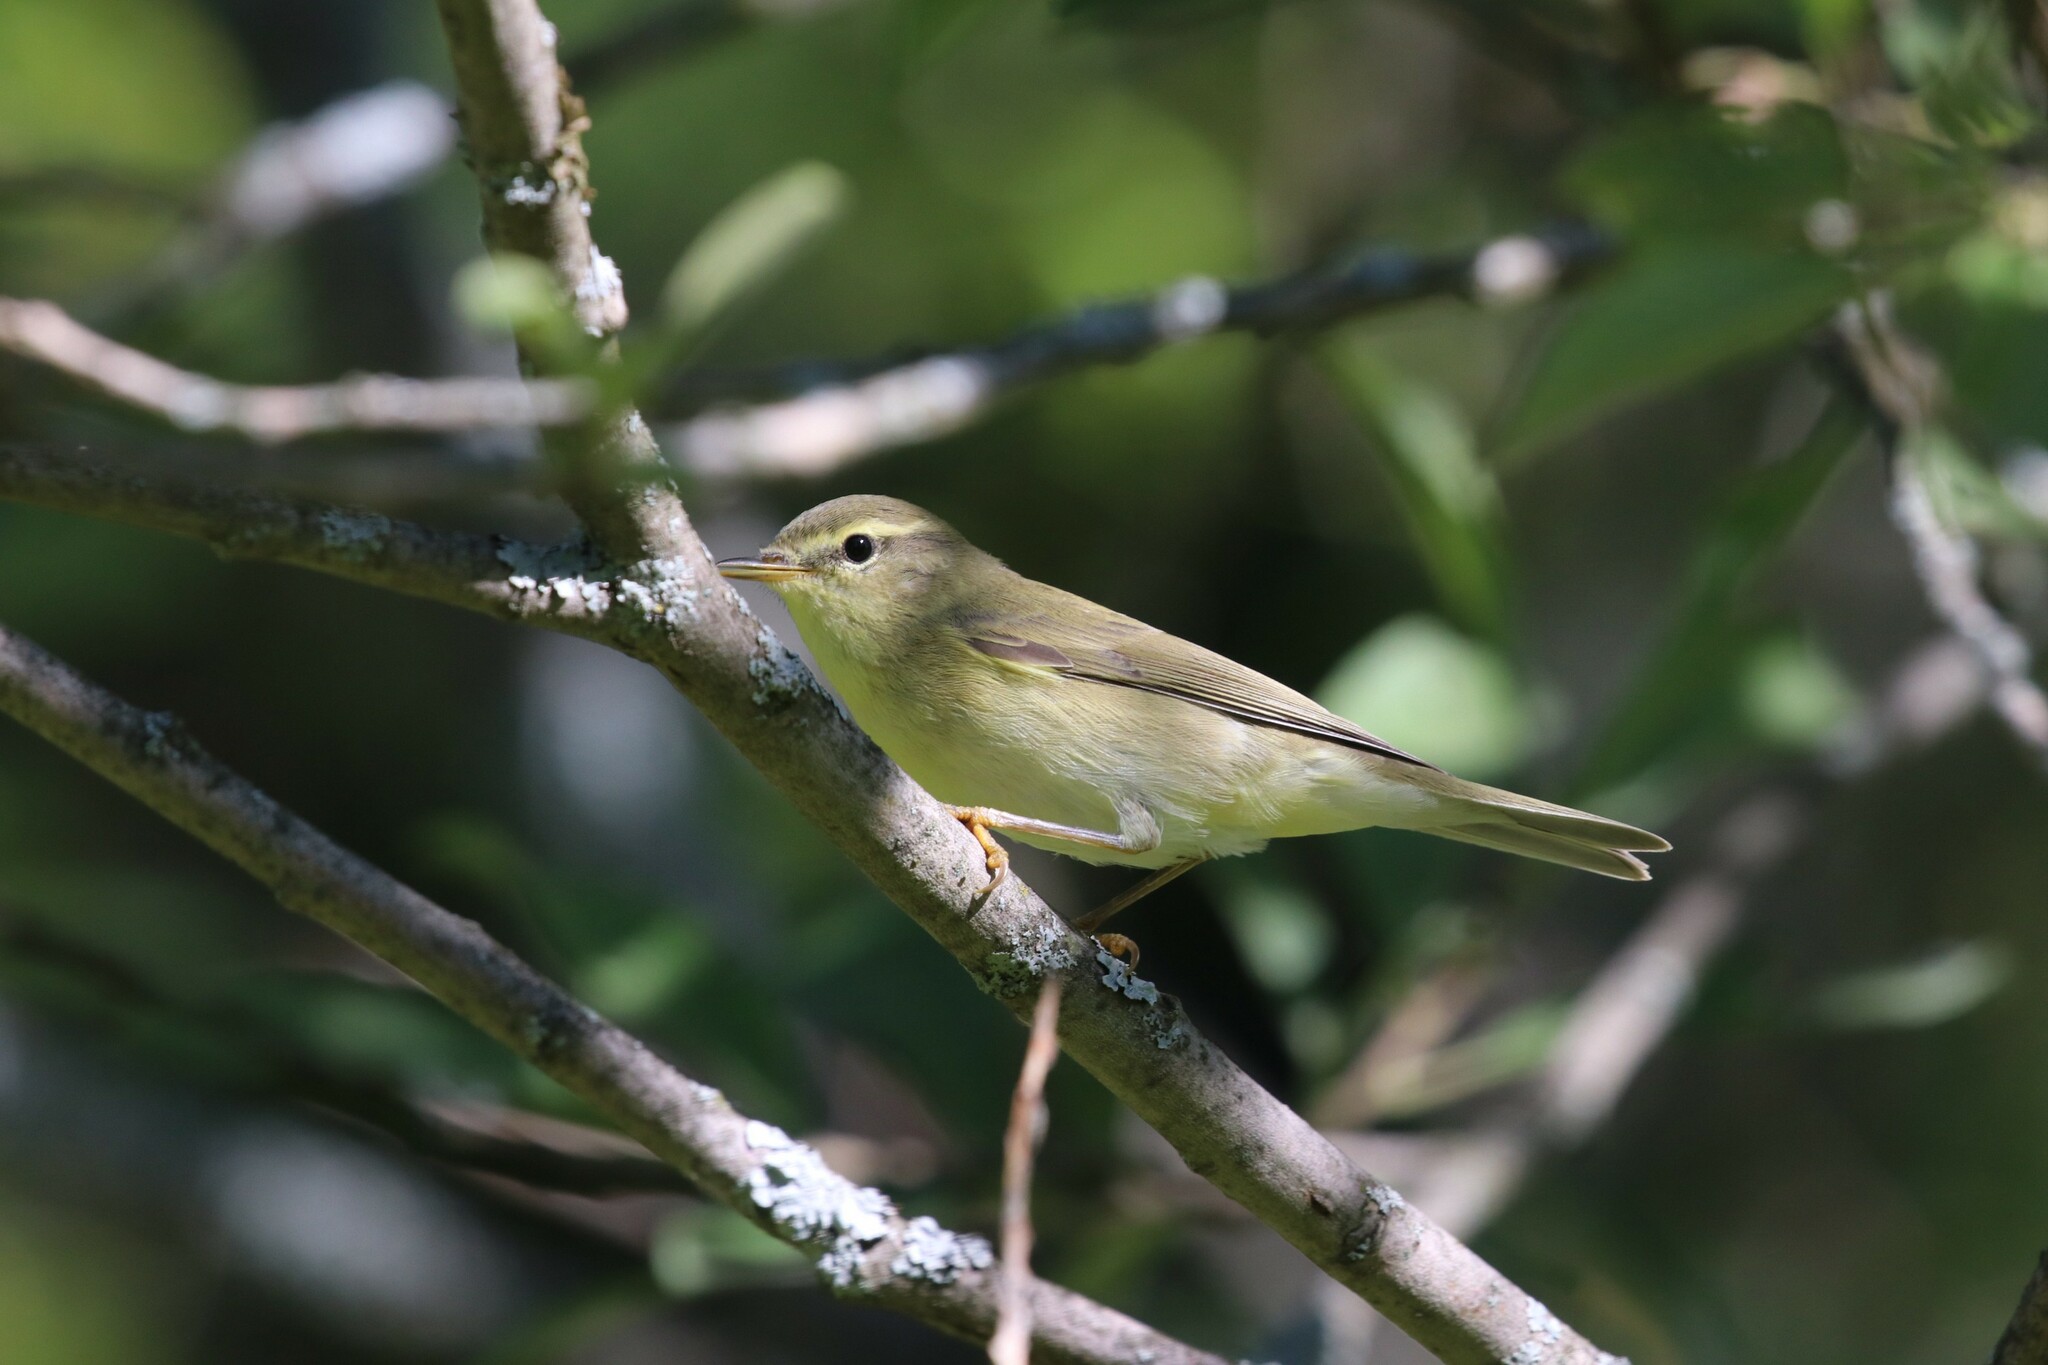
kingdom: Animalia
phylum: Chordata
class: Aves
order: Passeriformes
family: Phylloscopidae
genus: Phylloscopus
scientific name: Phylloscopus trochilus
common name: Willow warbler
